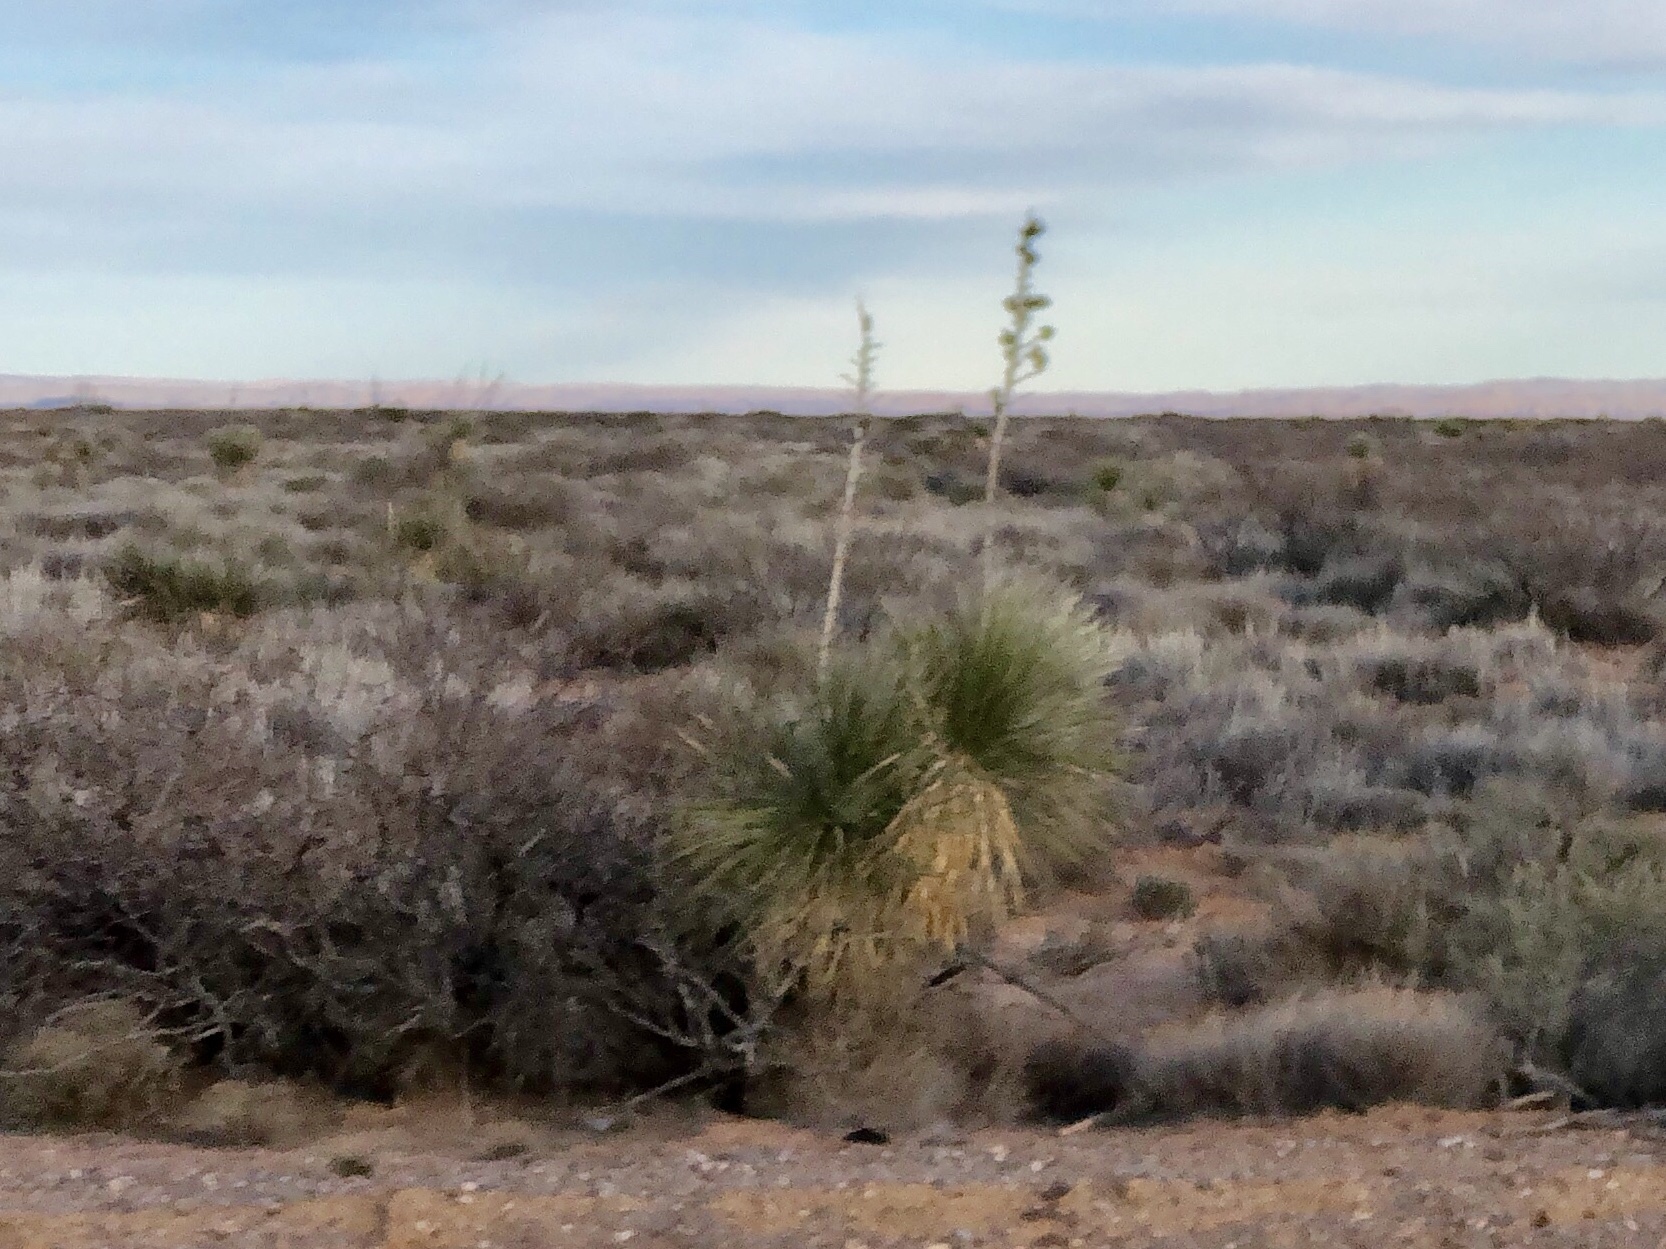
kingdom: Plantae
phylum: Tracheophyta
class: Liliopsida
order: Asparagales
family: Asparagaceae
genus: Yucca
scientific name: Yucca elata
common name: Palmella
